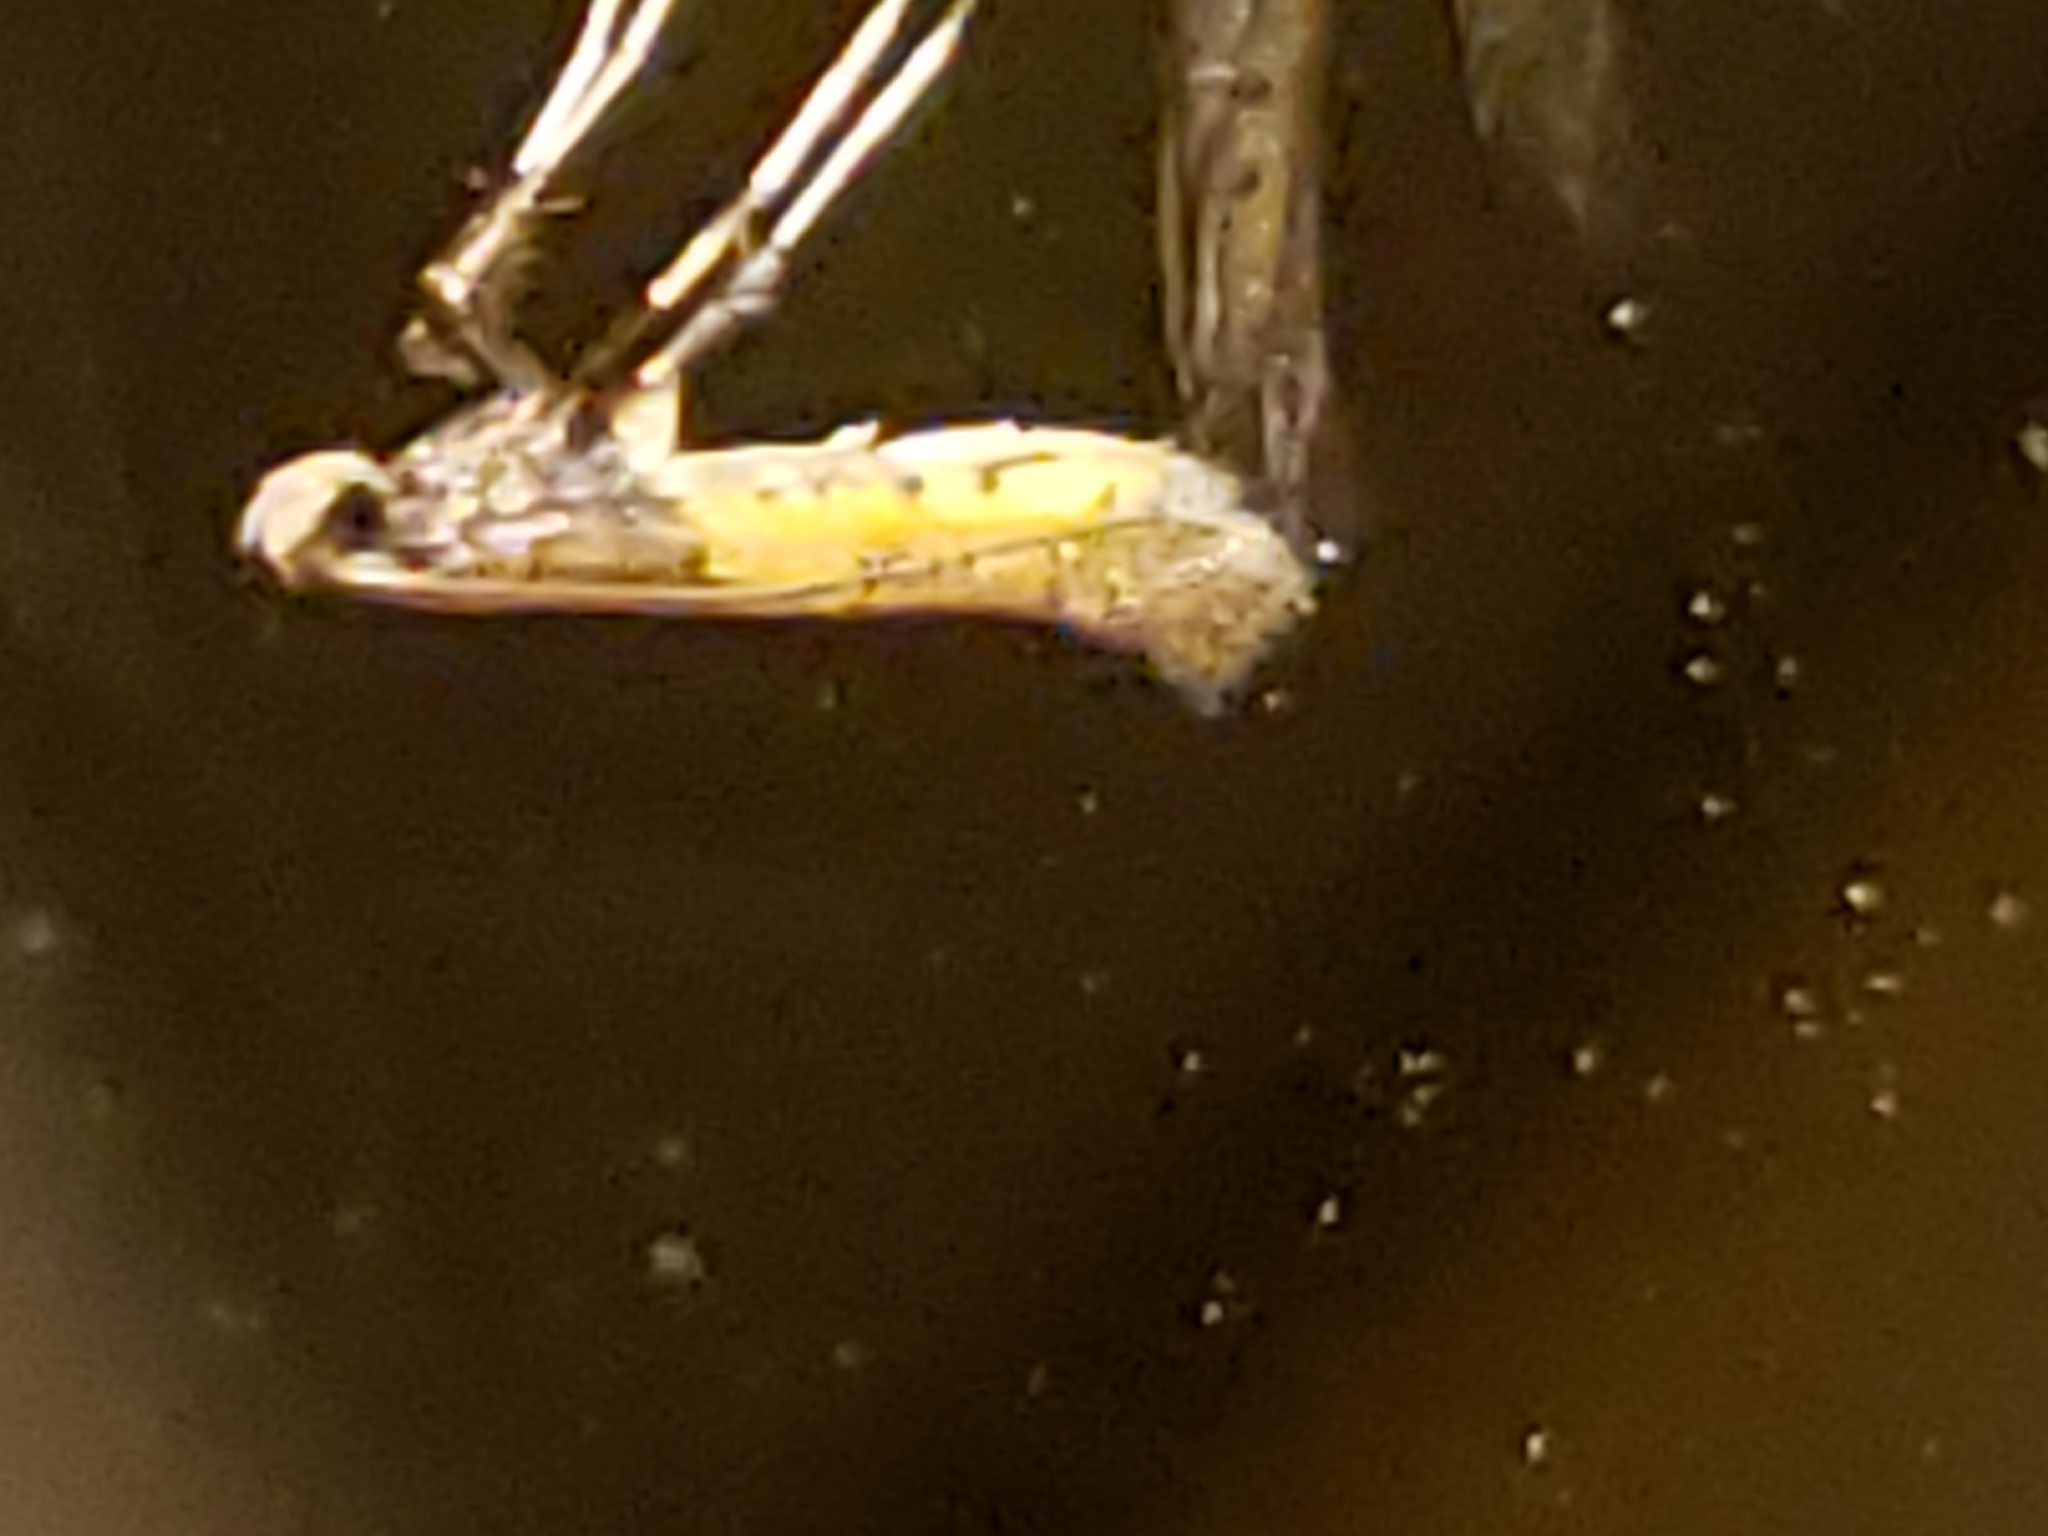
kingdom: Animalia
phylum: Arthropoda
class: Insecta
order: Lepidoptera
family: Gracillariidae
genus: Caloptilia
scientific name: Caloptilia azaleella
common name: Azalea leafminer
